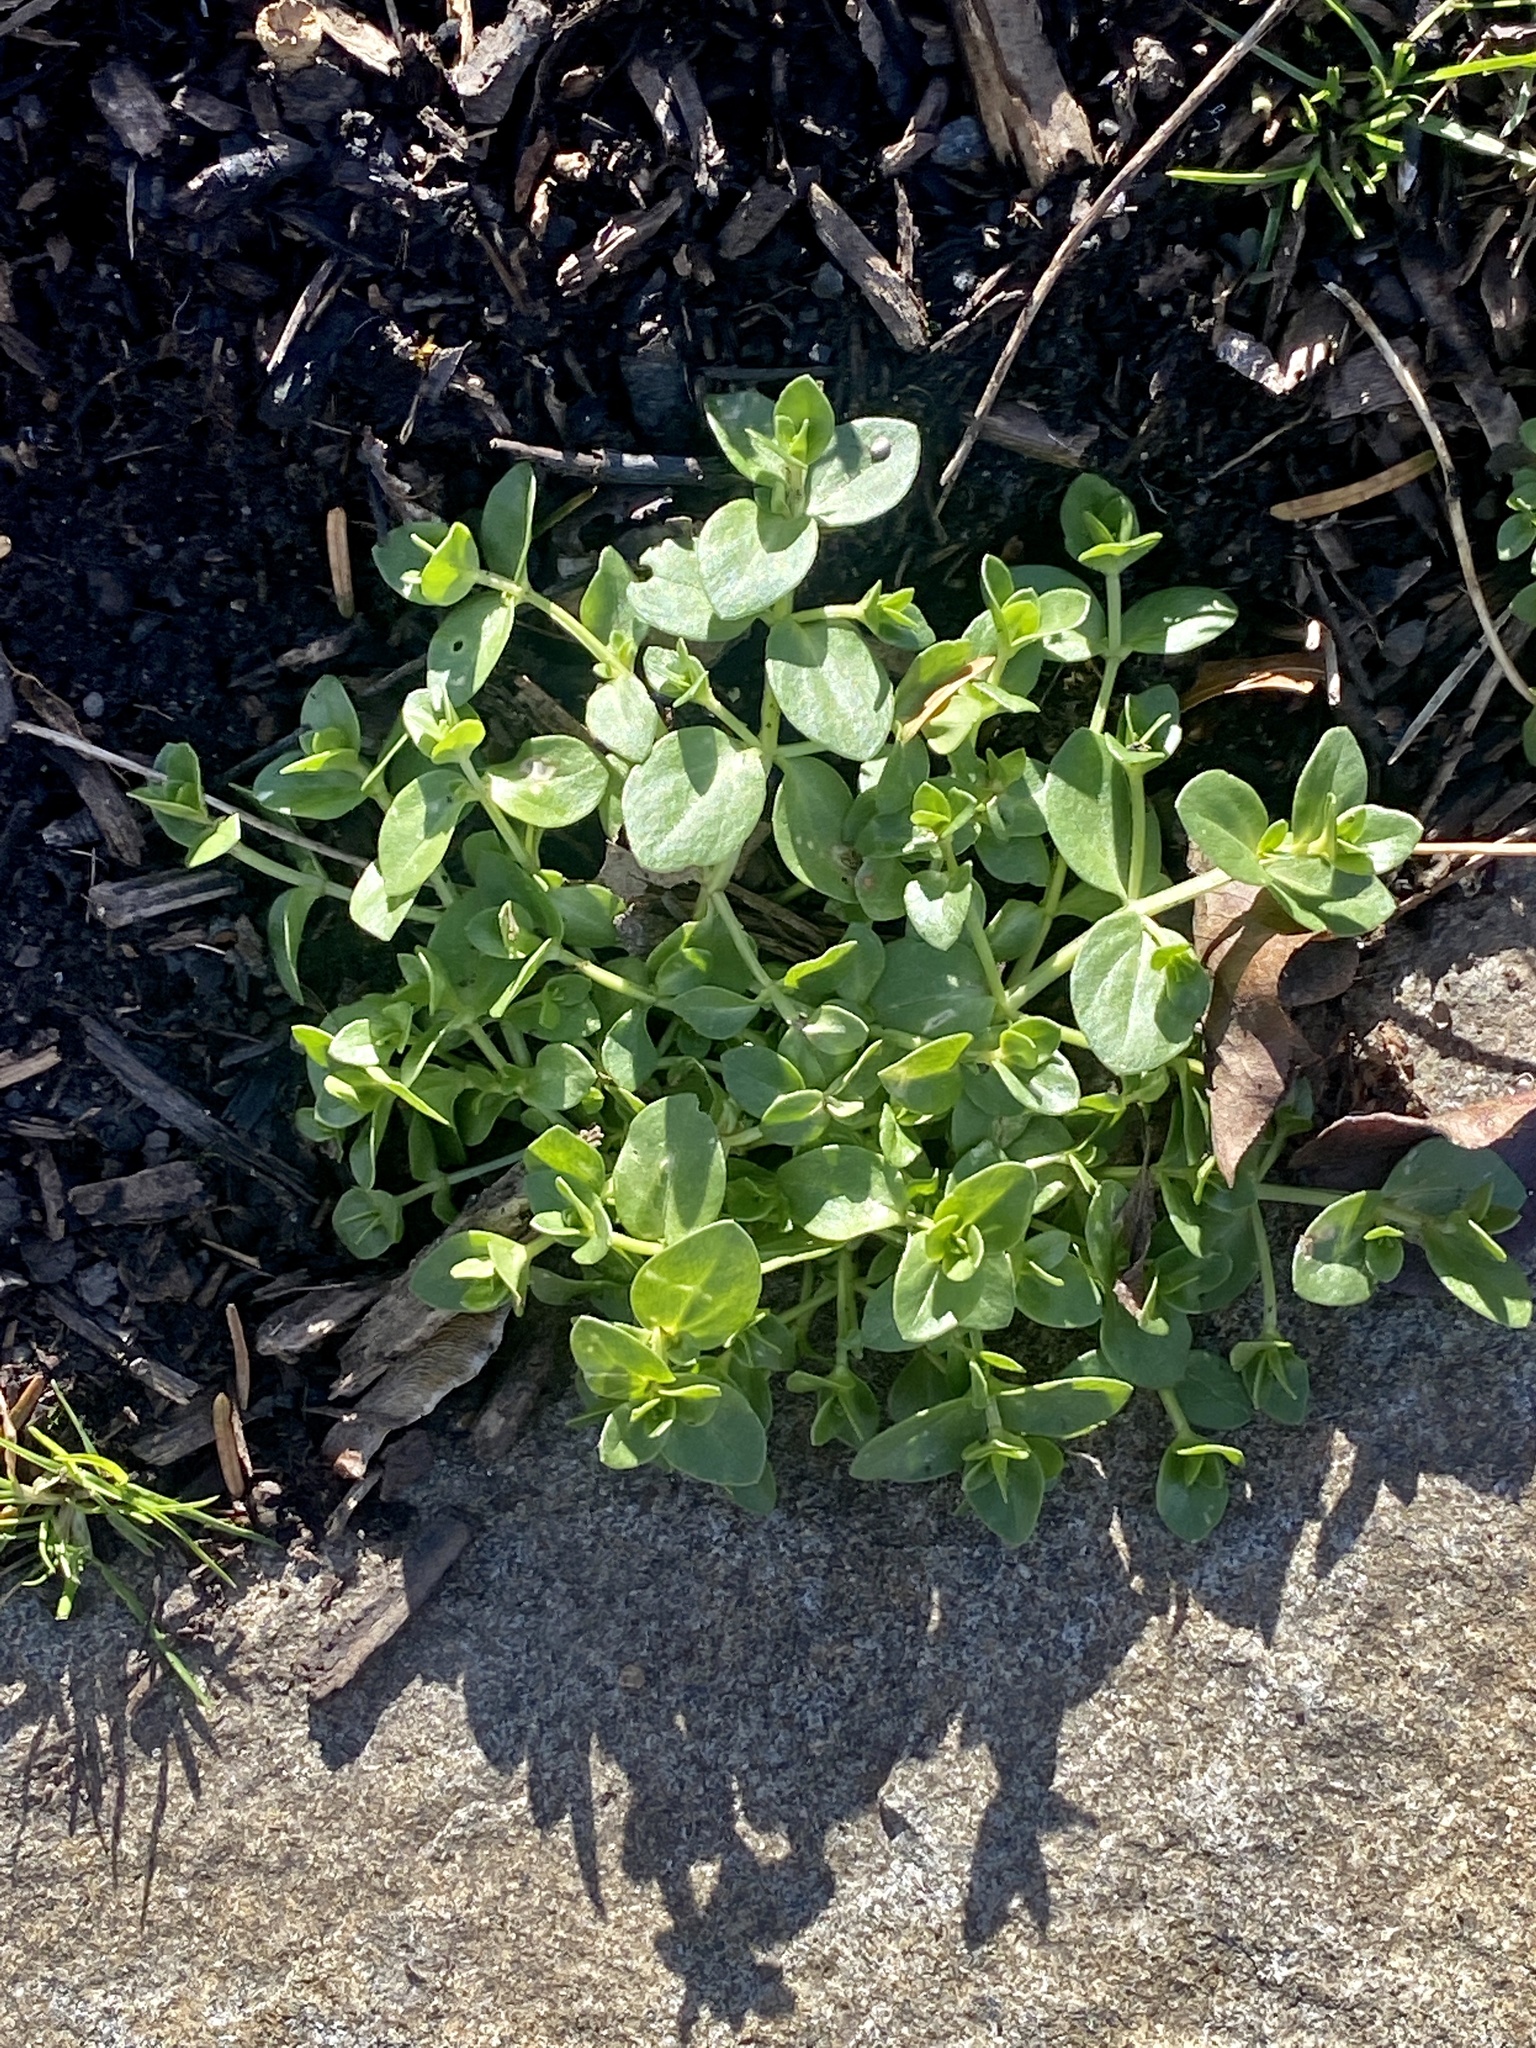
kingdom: Plantae
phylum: Tracheophyta
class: Magnoliopsida
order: Lamiales
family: Plantaginaceae
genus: Veronica
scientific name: Veronica serpyllifolia
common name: Thyme-leaved speedwell
